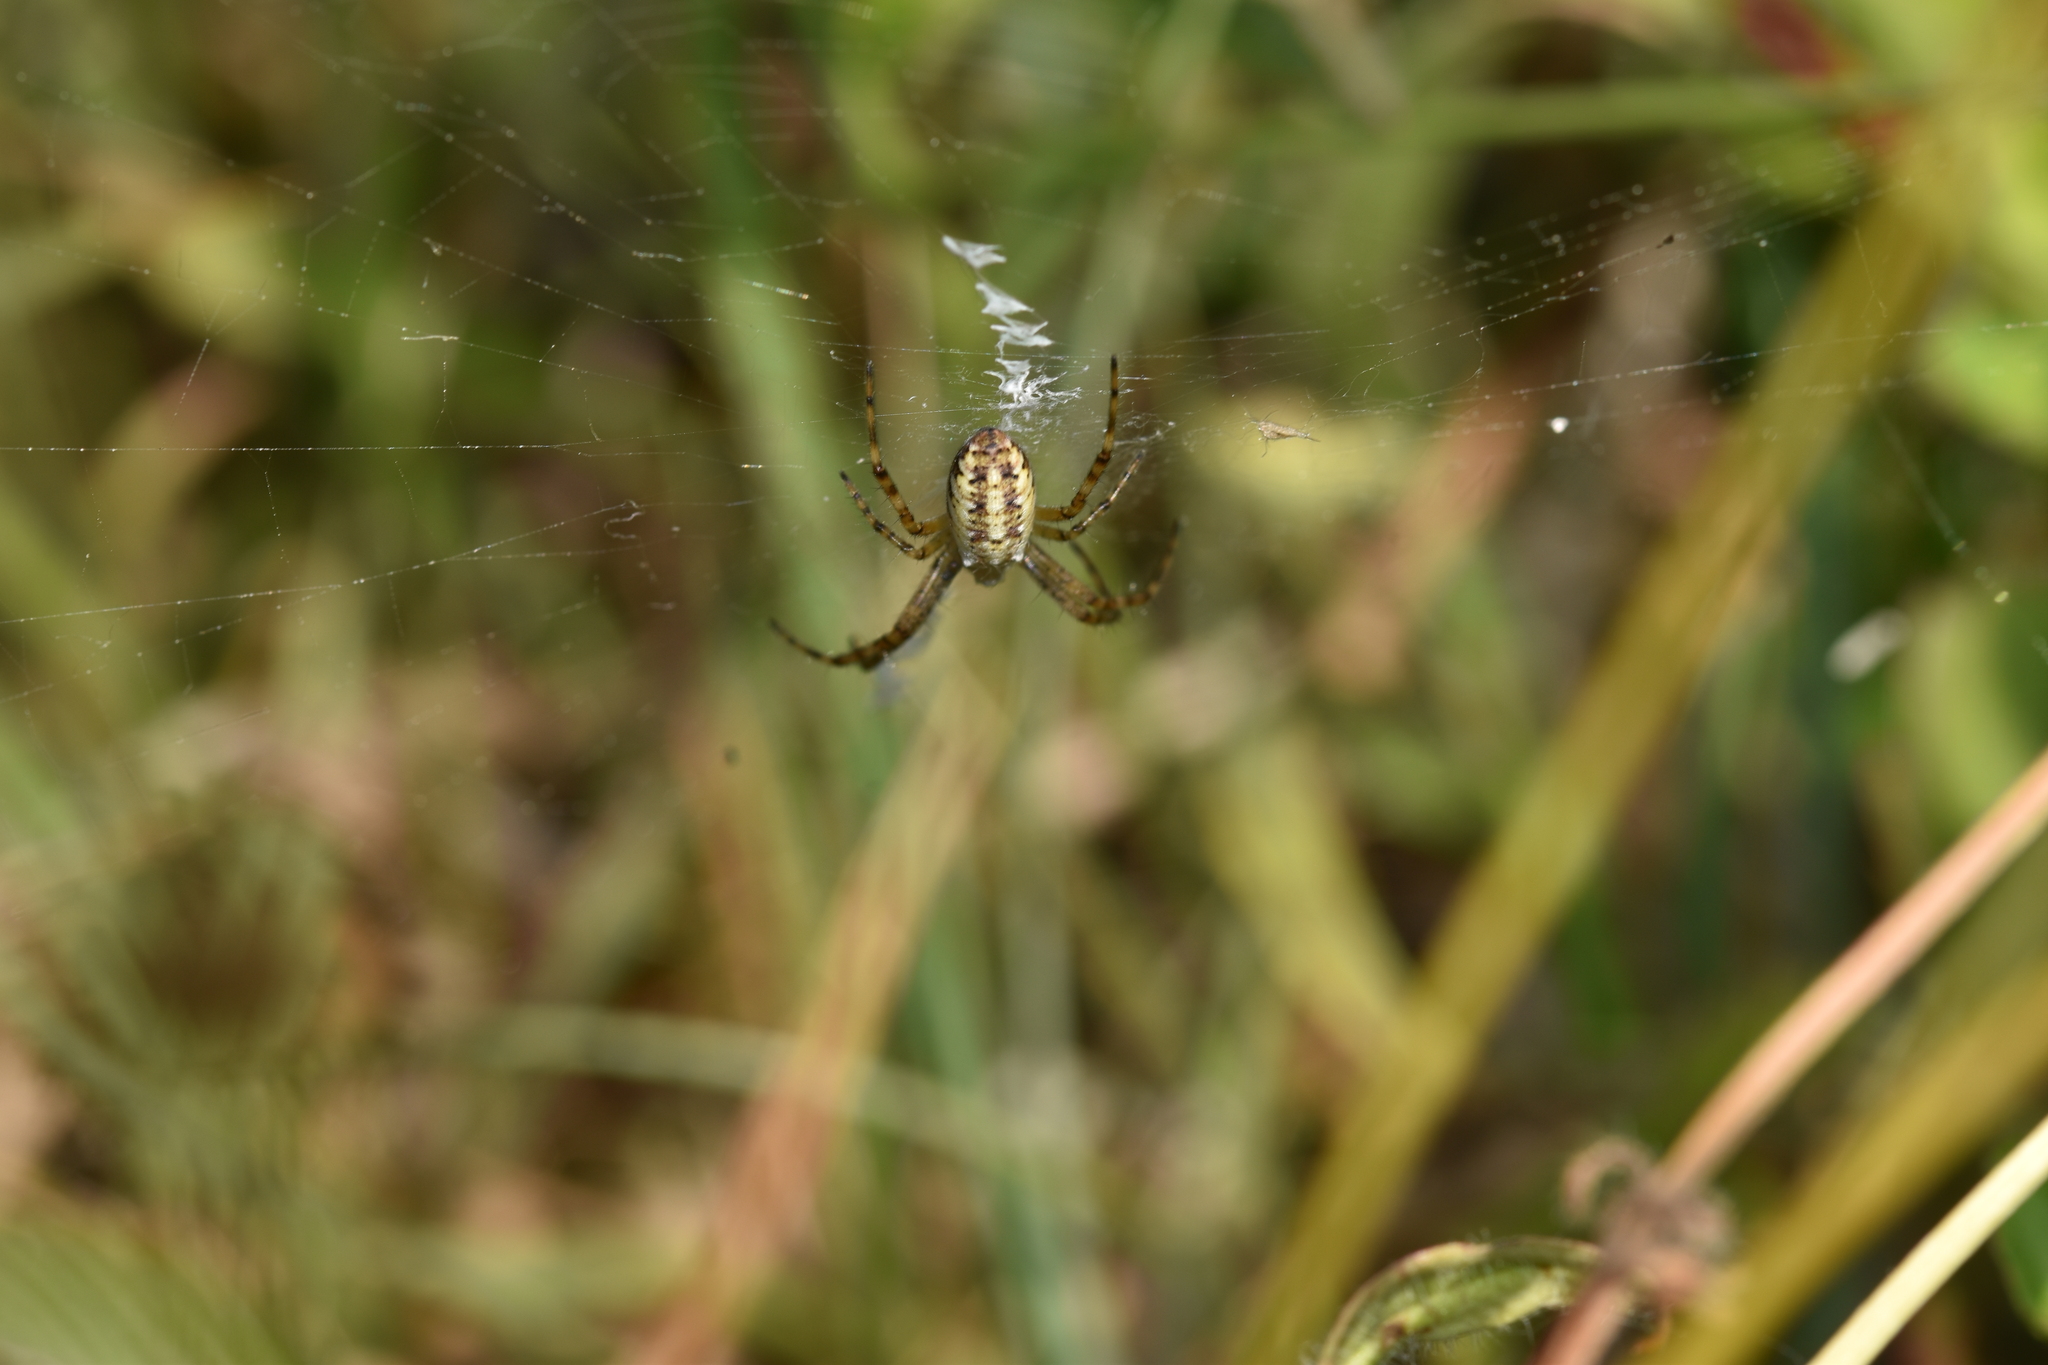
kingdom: Animalia
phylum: Arthropoda
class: Arachnida
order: Araneae
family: Araneidae
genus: Argiope
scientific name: Argiope bruennichi
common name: Wasp spider
